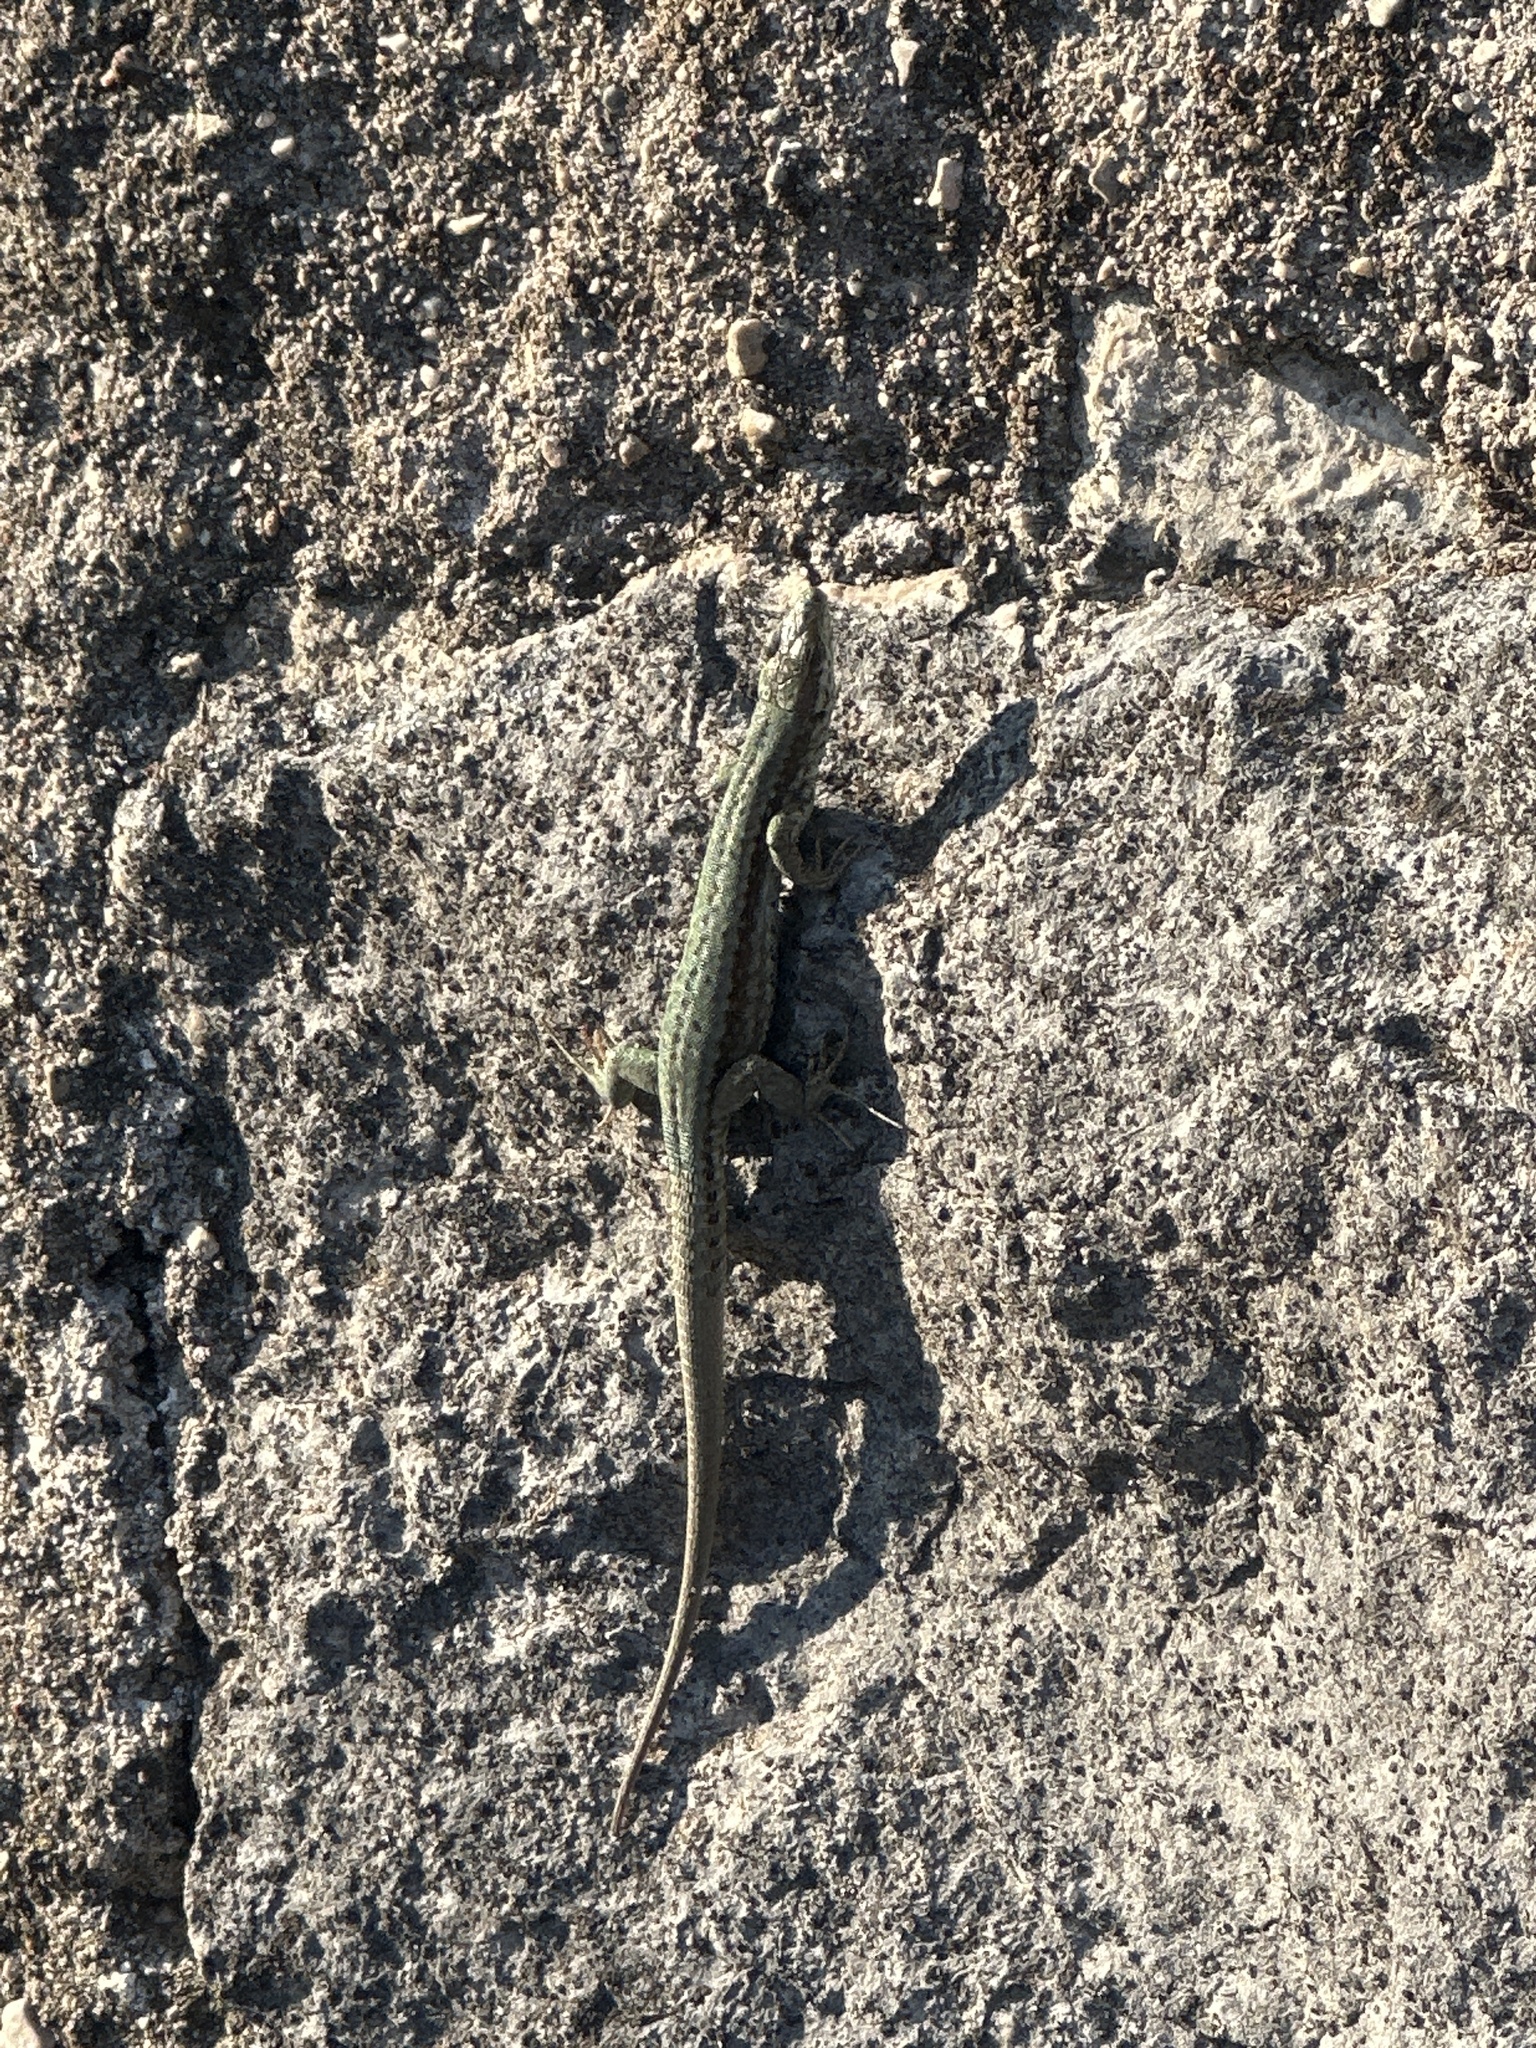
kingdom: Animalia
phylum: Chordata
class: Squamata
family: Lacertidae
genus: Podarcis
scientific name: Podarcis muralis
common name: Common wall lizard
